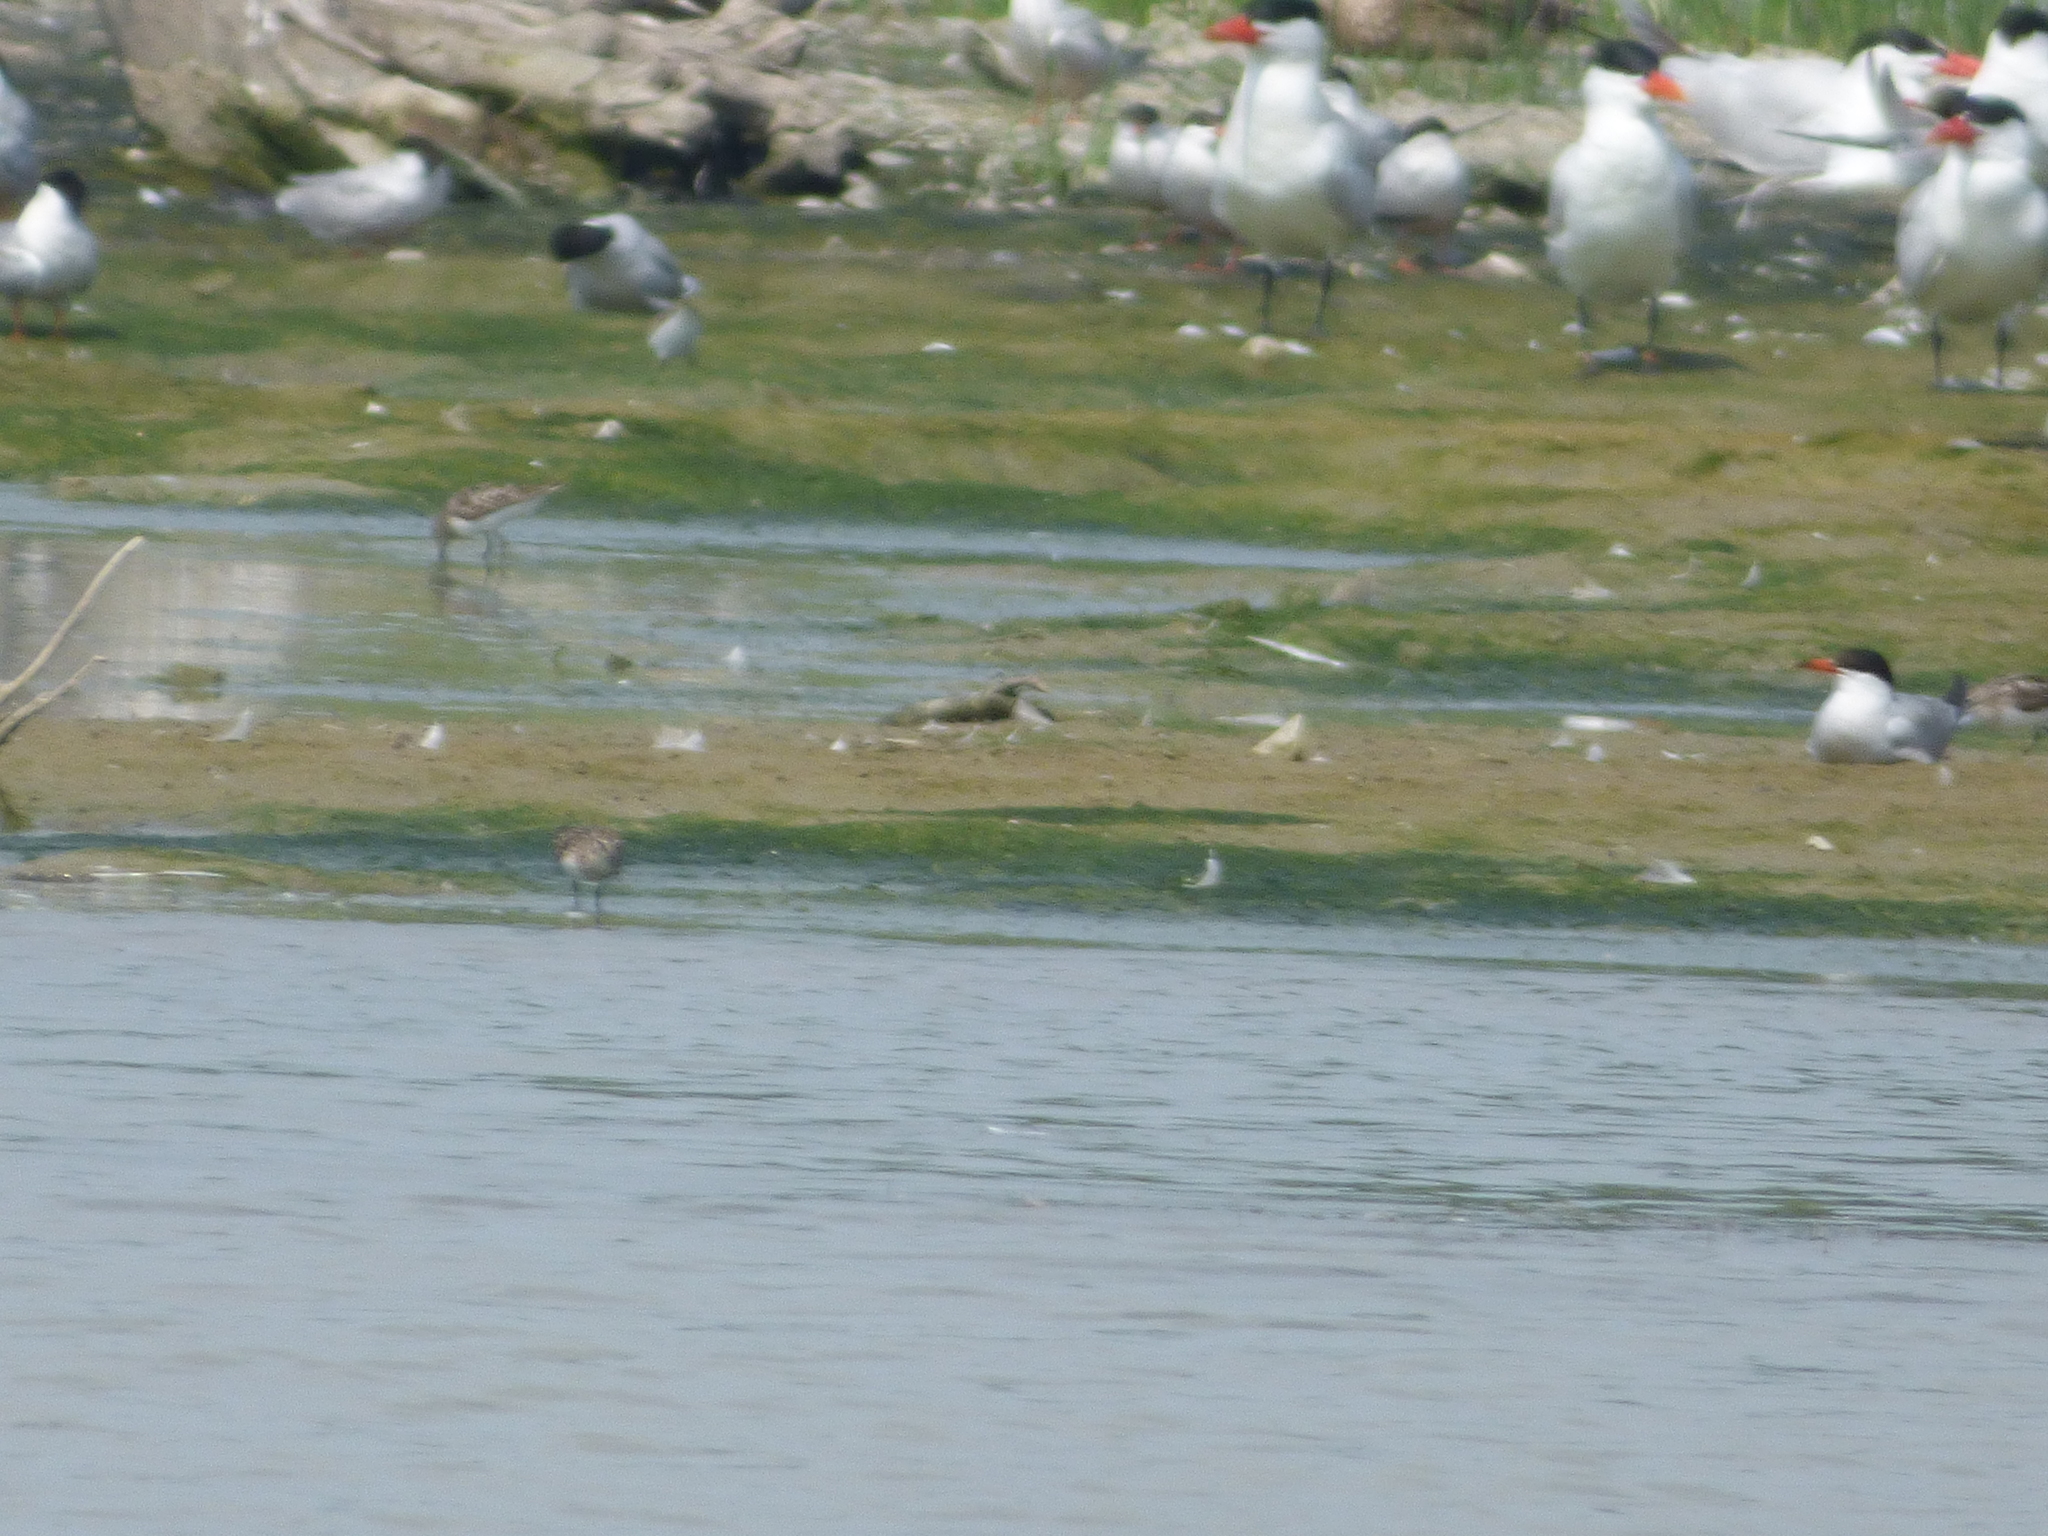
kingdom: Animalia
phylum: Chordata
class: Aves
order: Charadriiformes
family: Laridae
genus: Sterna
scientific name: Sterna hirundo
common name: Common tern
